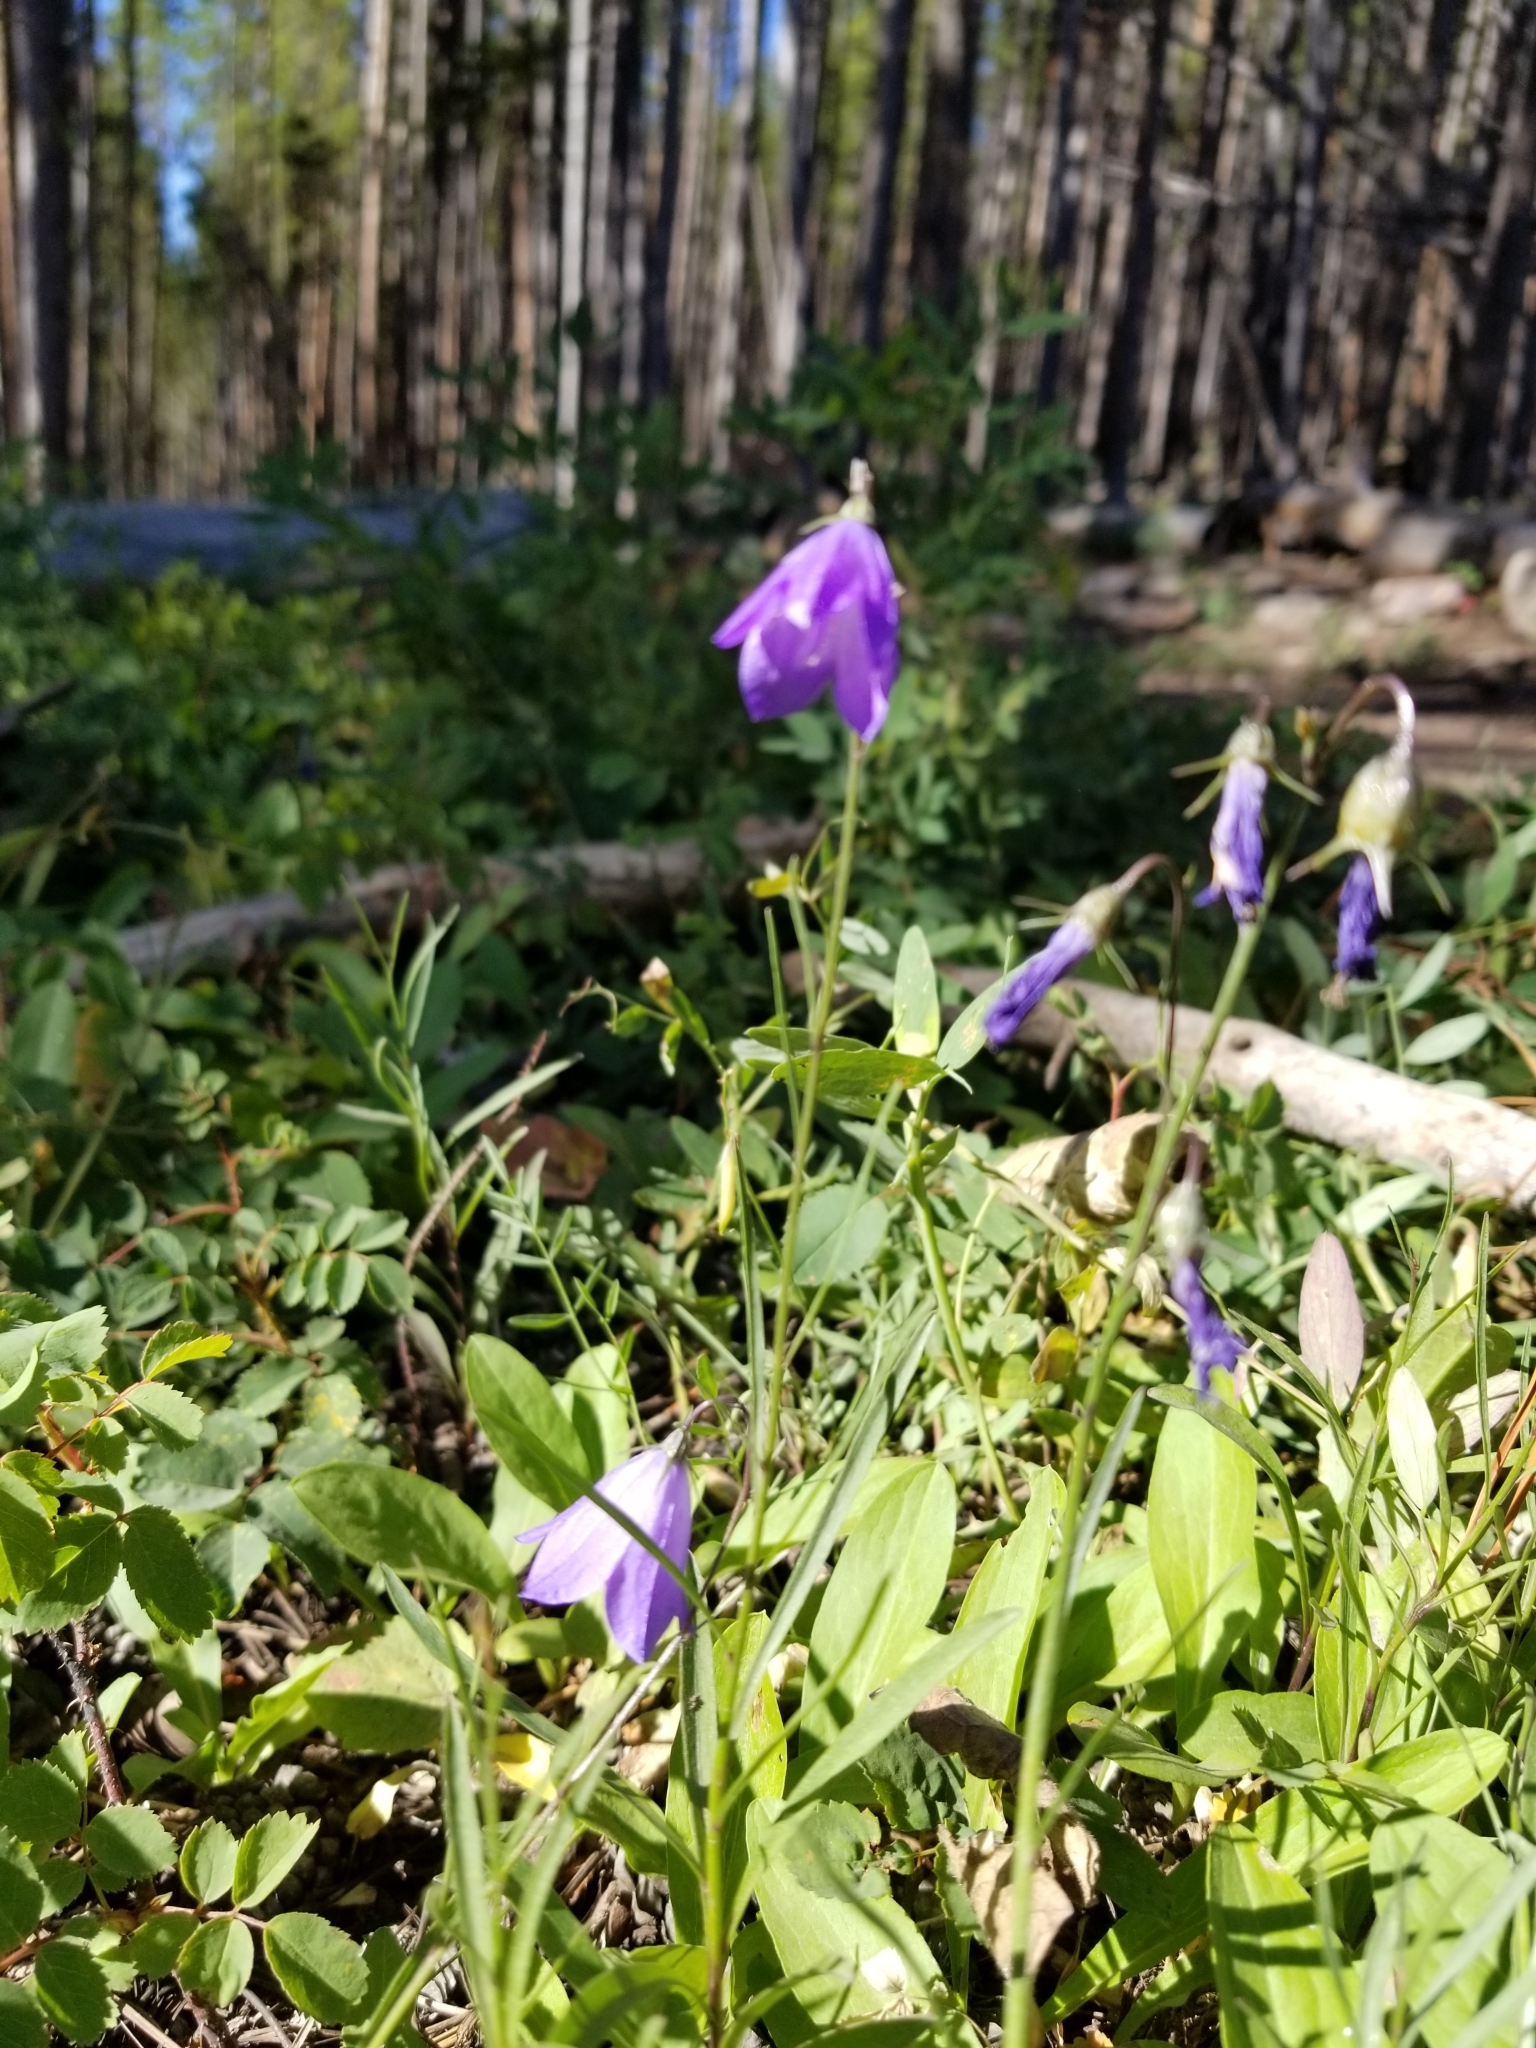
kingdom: Plantae
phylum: Tracheophyta
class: Magnoliopsida
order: Asterales
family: Campanulaceae
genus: Campanula
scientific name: Campanula petiolata
